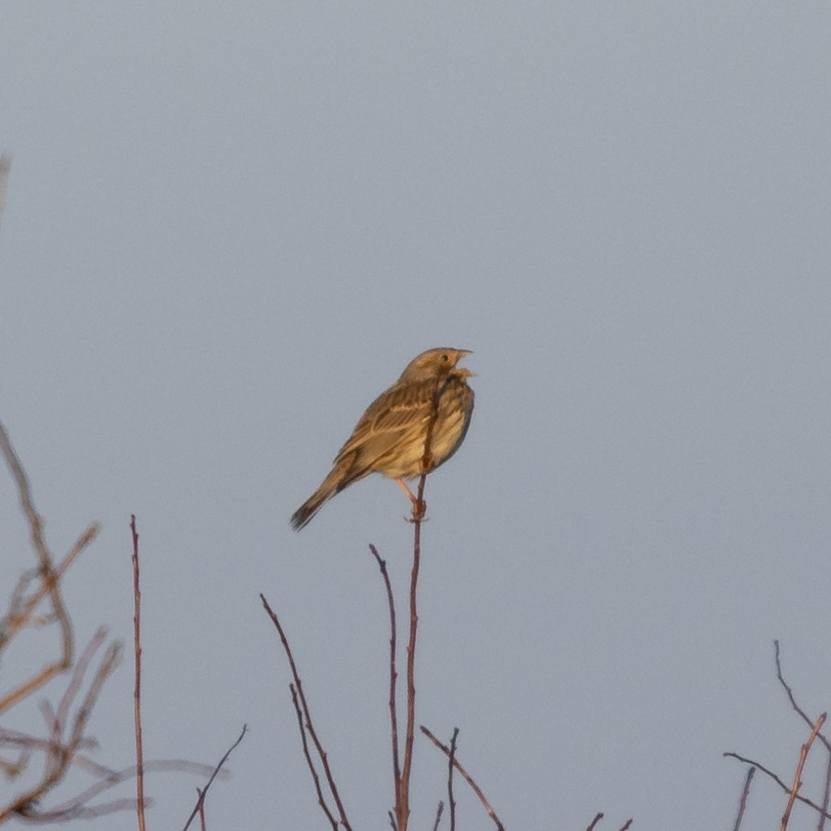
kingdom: Animalia
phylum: Chordata
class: Aves
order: Passeriformes
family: Emberizidae
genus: Emberiza
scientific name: Emberiza calandra
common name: Corn bunting
